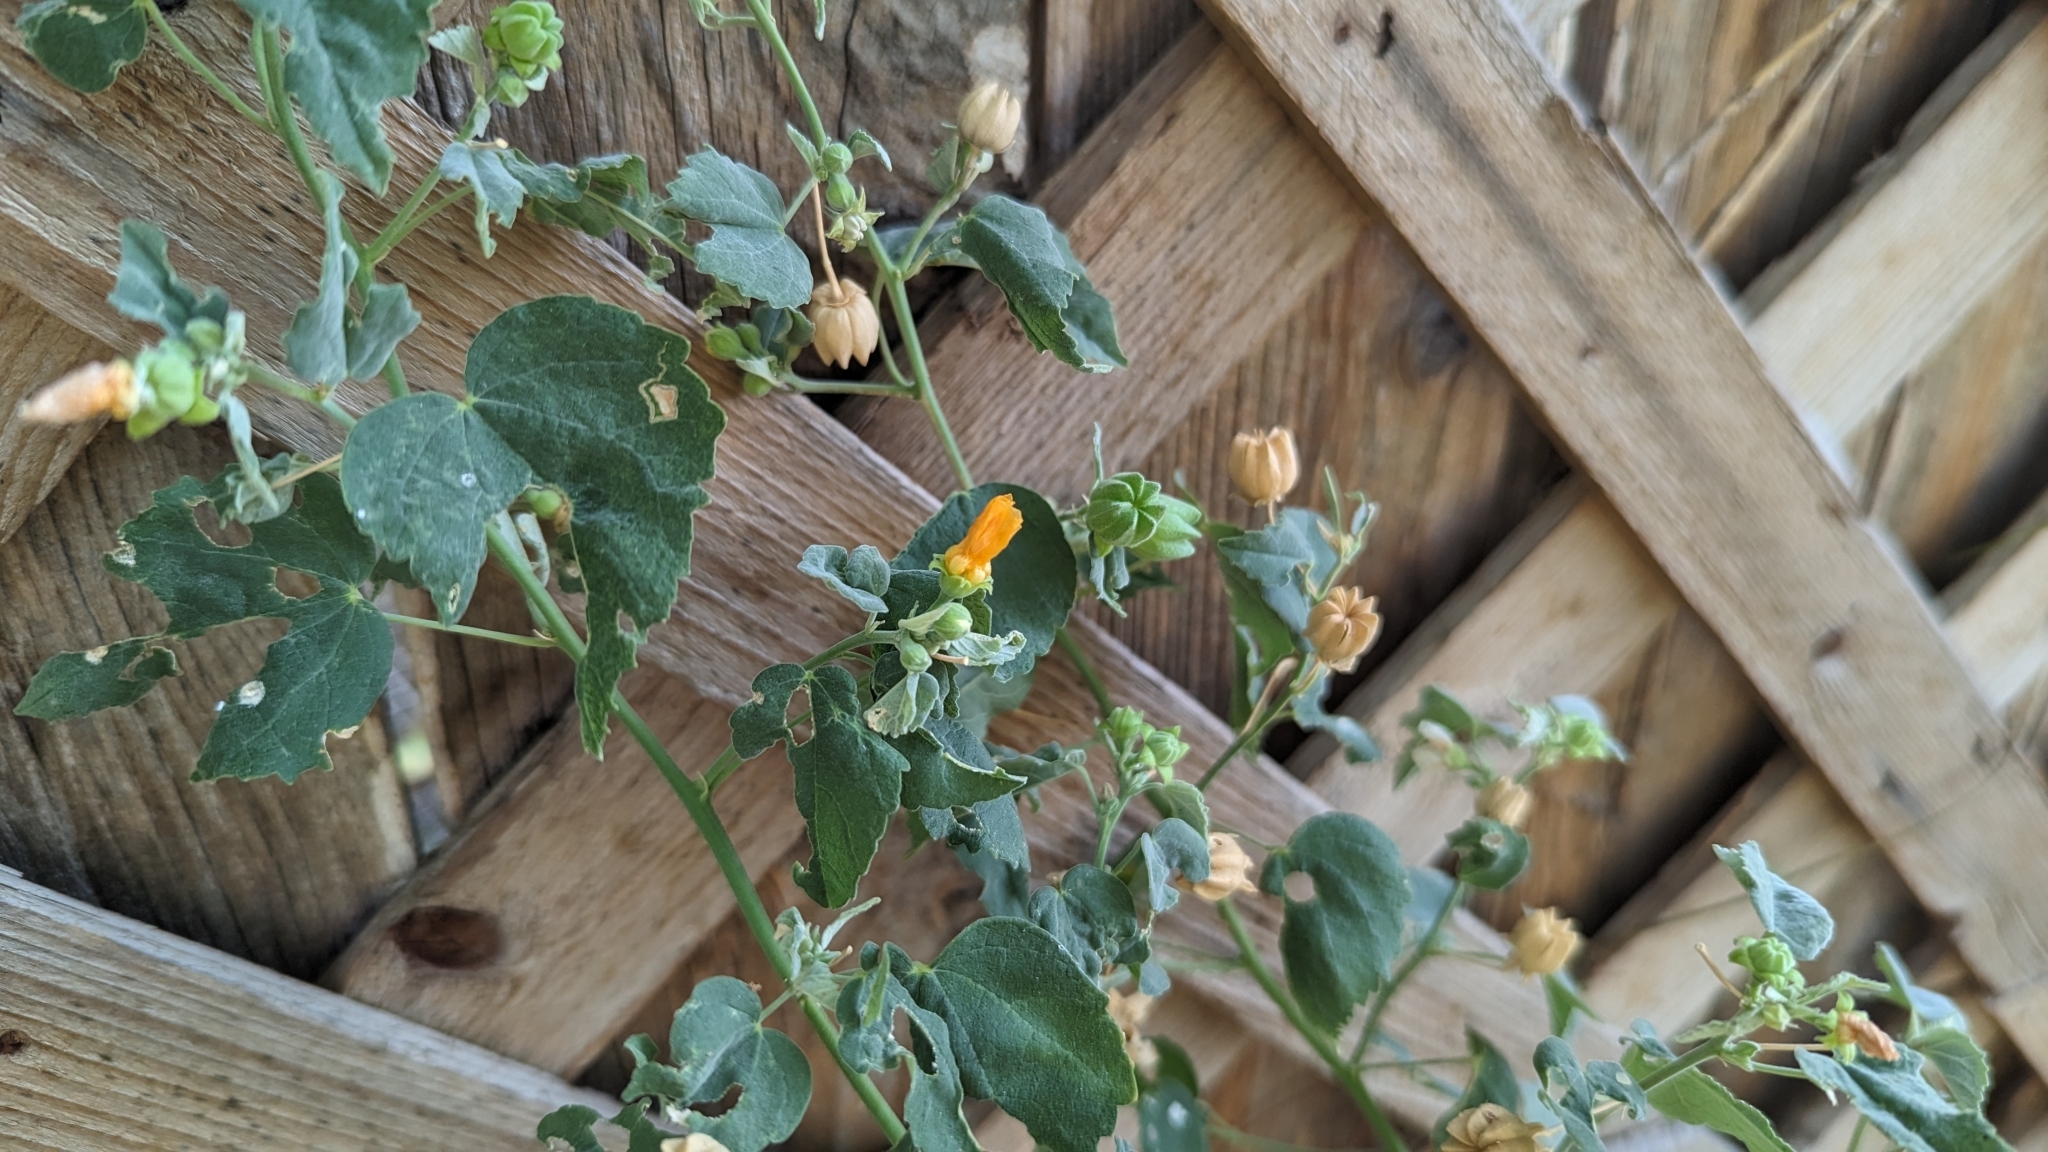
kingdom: Plantae
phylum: Tracheophyta
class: Magnoliopsida
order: Malvales
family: Malvaceae
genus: Abutilon
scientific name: Abutilon fruticosum
